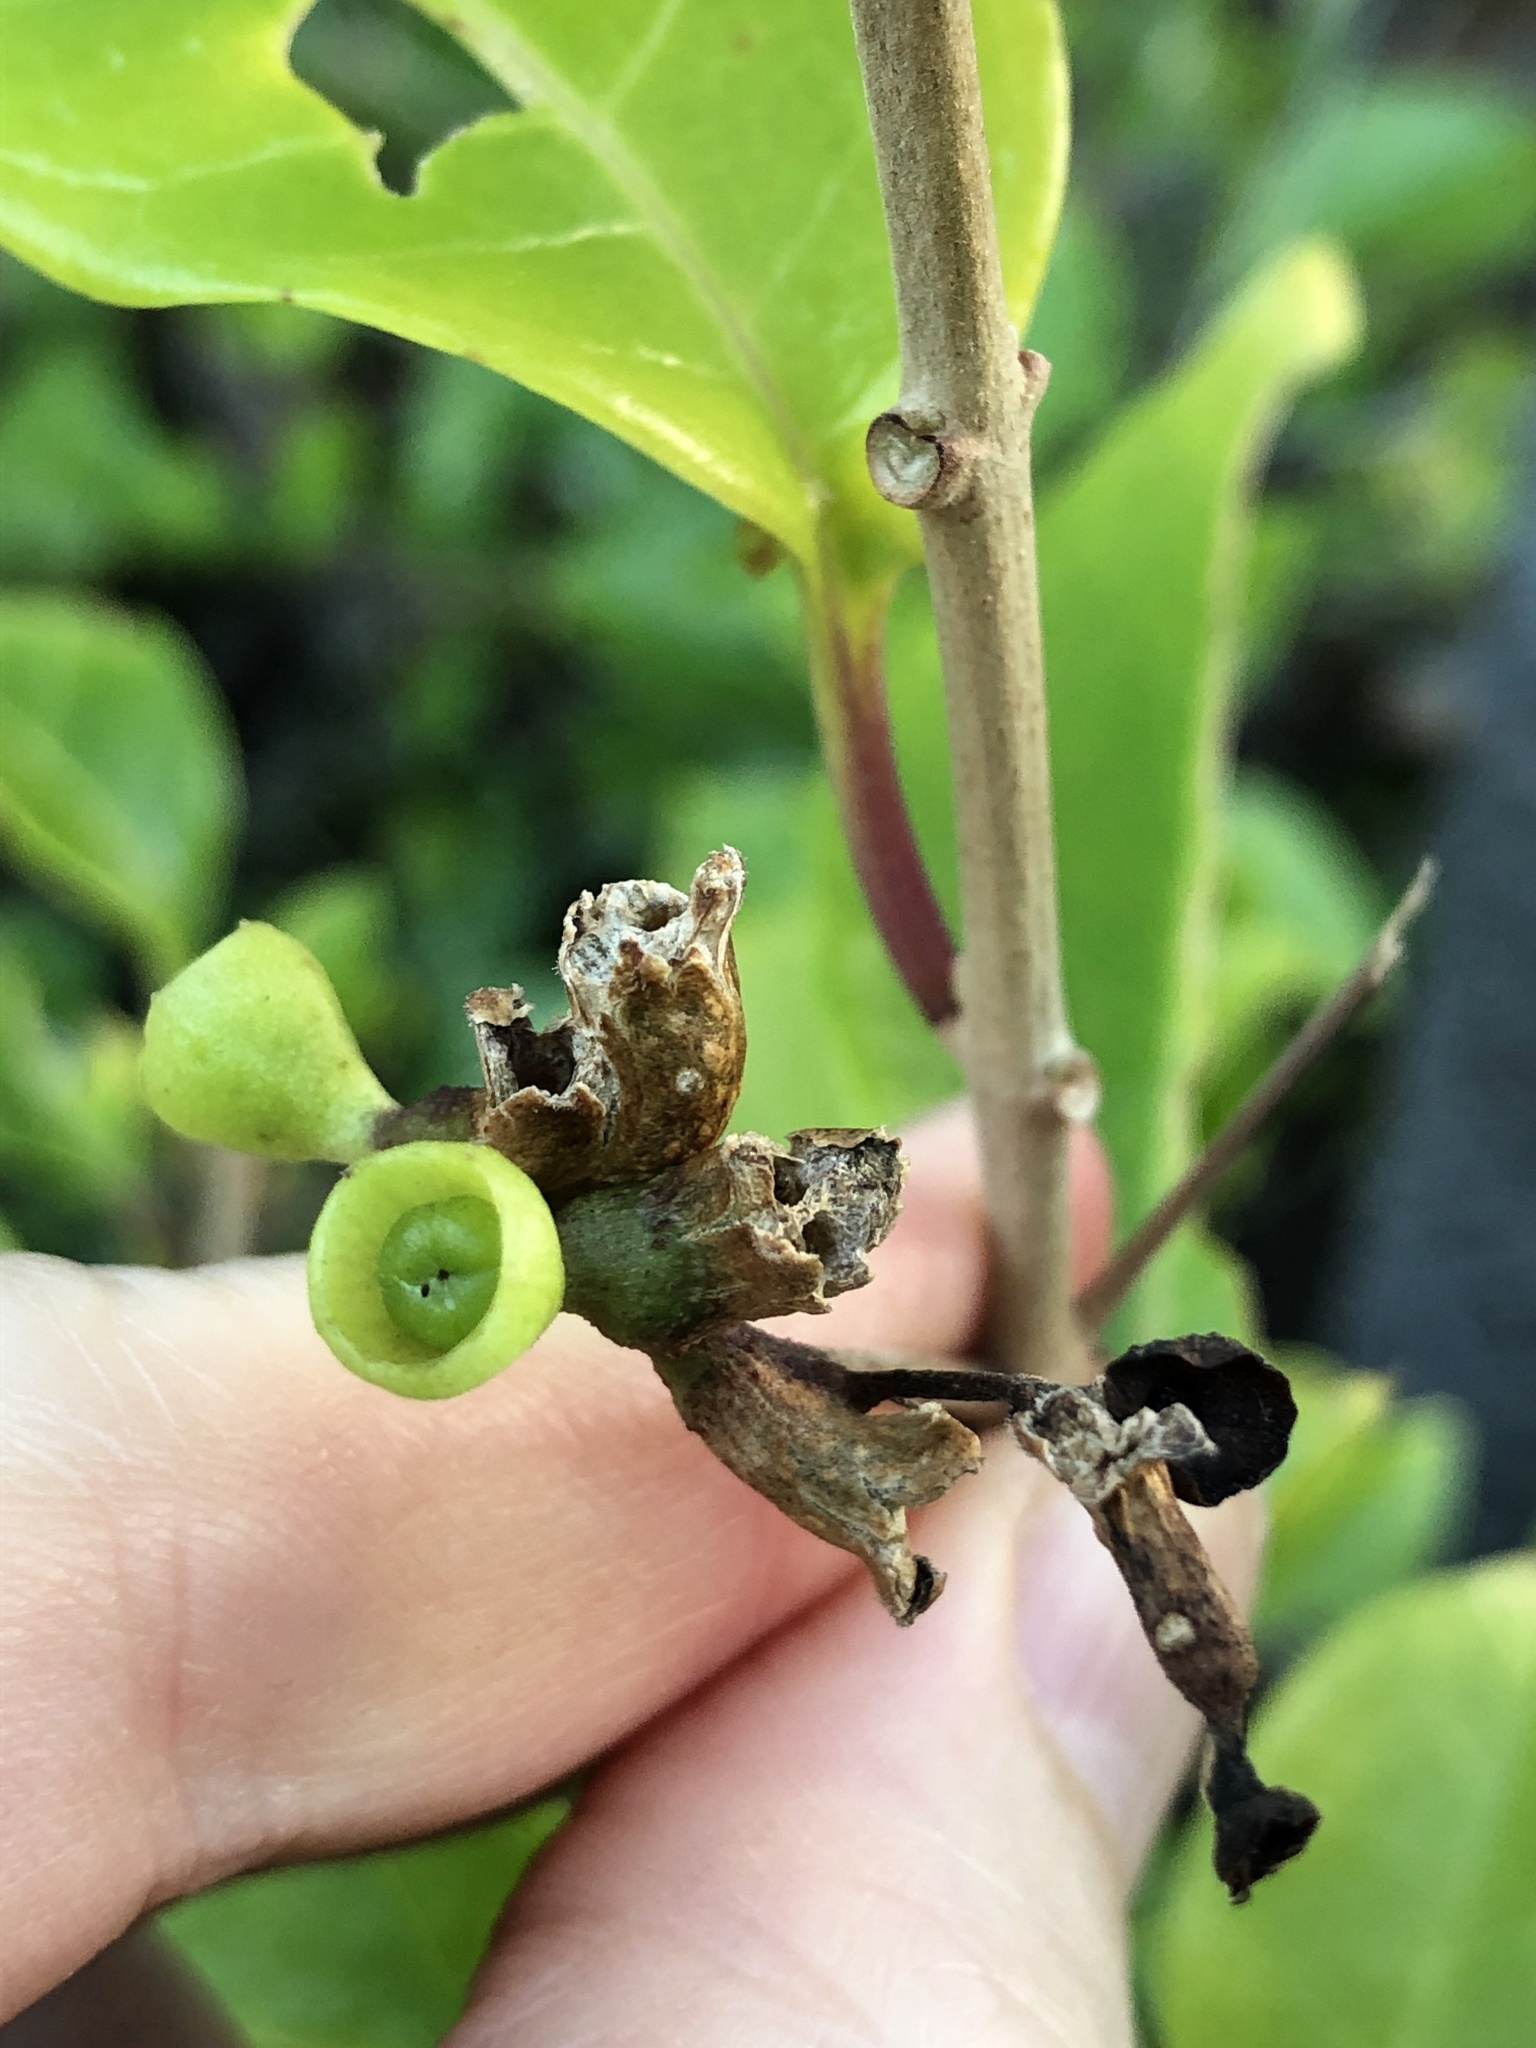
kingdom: Plantae
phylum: Tracheophyta
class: Magnoliopsida
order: Lamiales
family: Lamiaceae
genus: Volkameria
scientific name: Volkameria inermis
